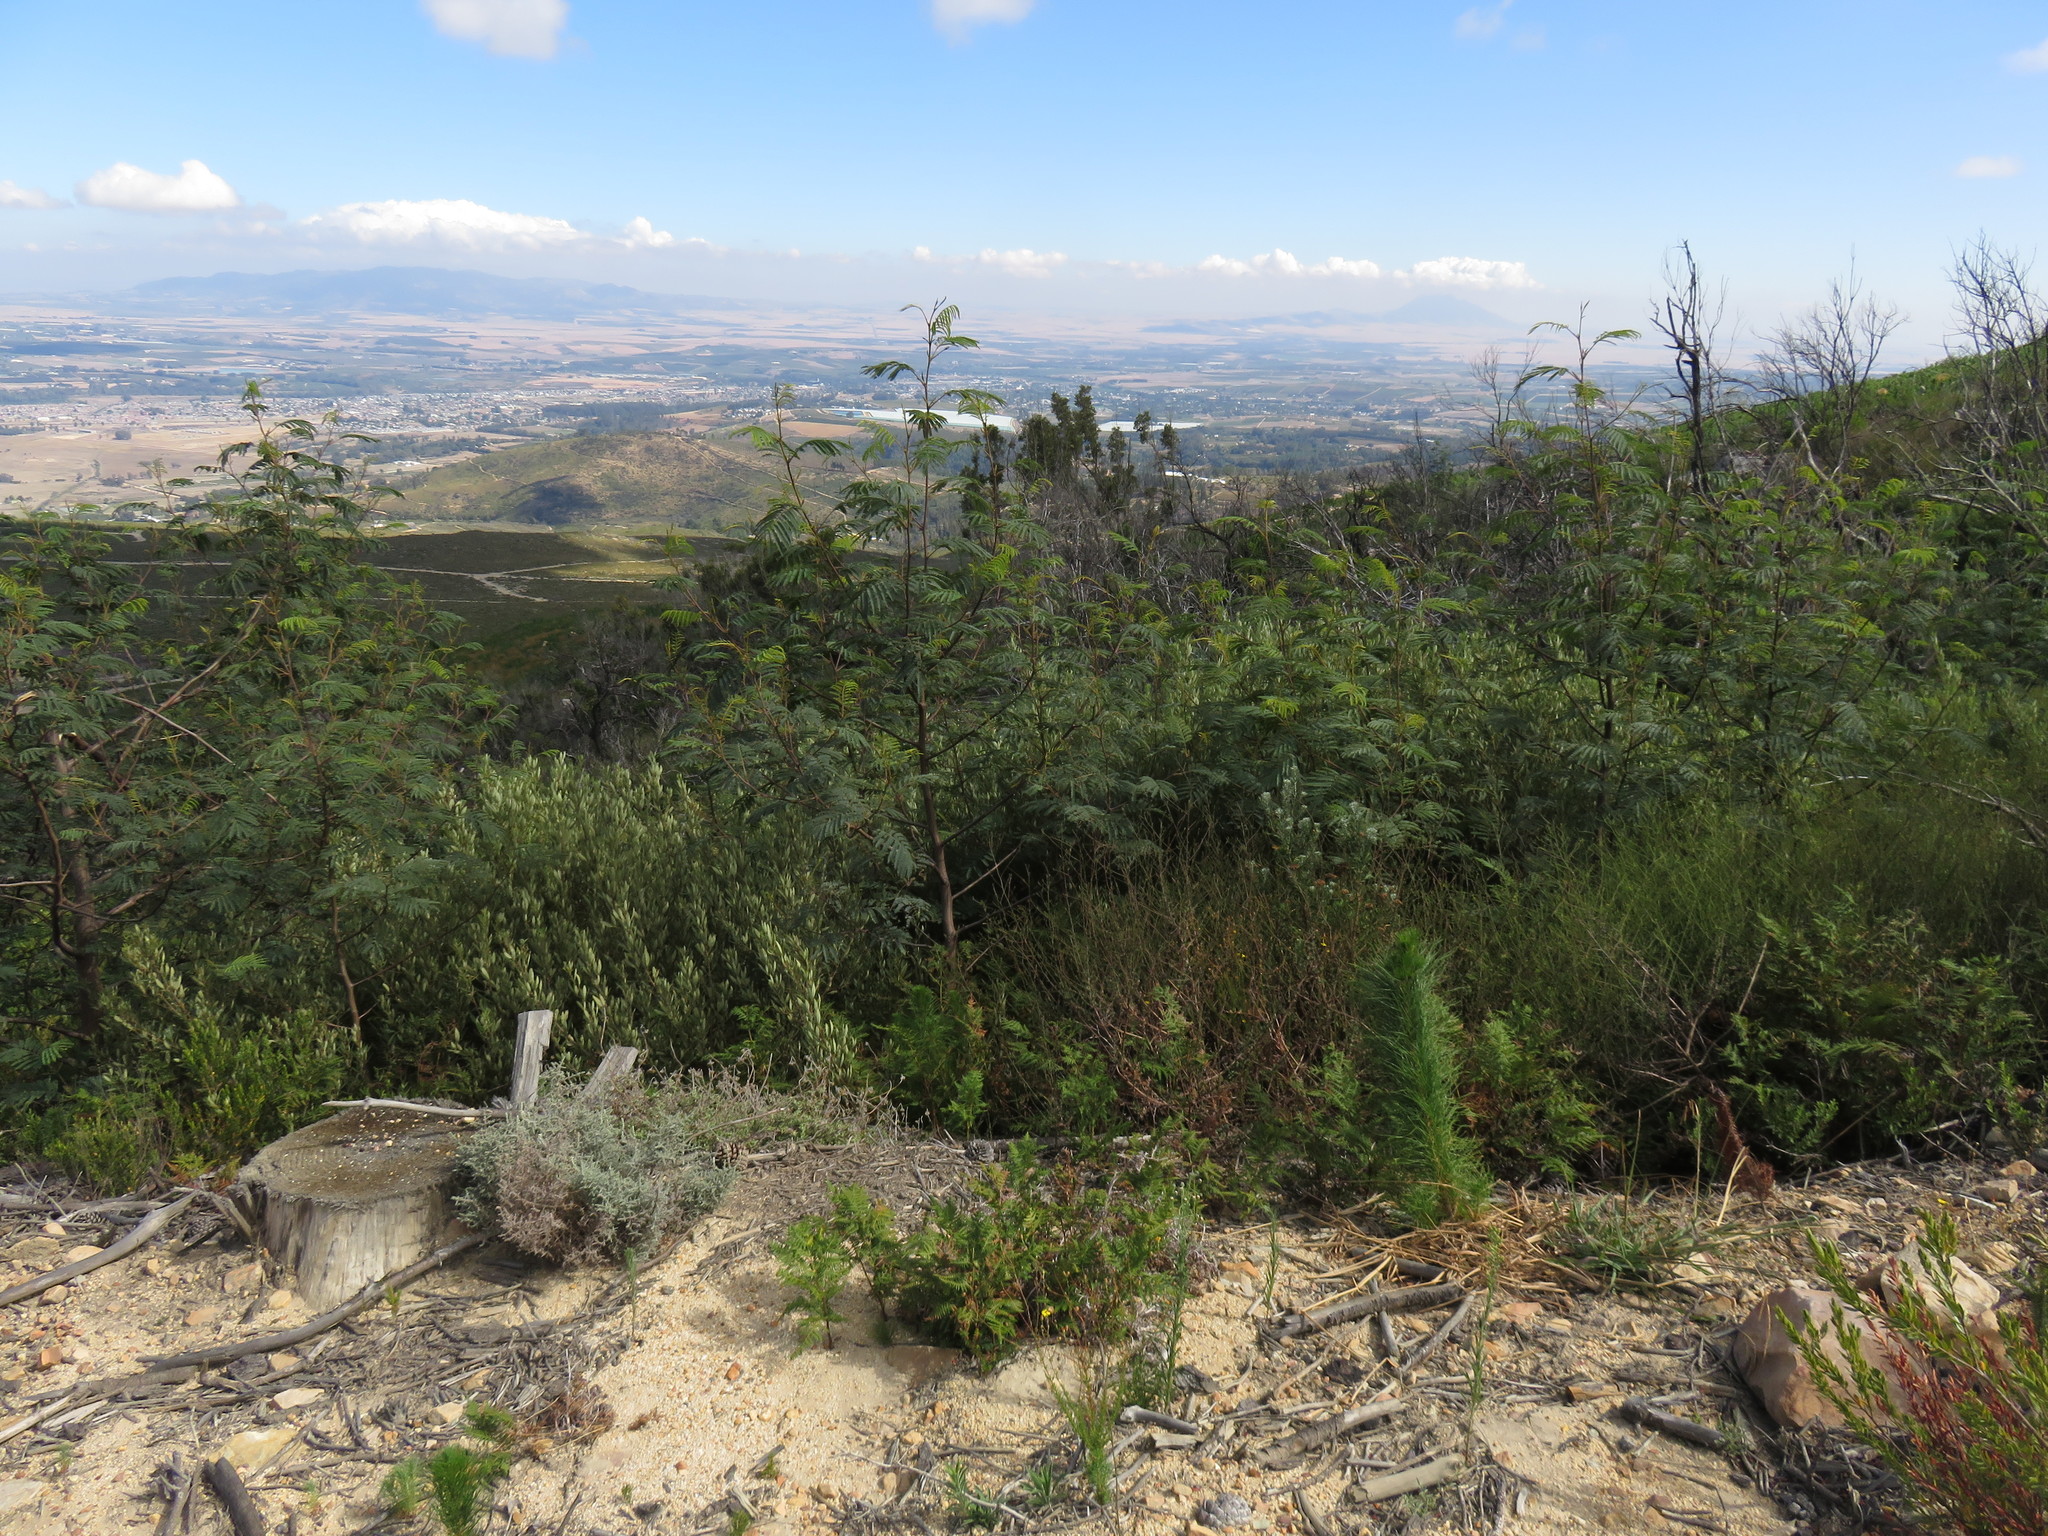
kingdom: Plantae
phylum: Tracheophyta
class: Magnoliopsida
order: Fabales
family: Fabaceae
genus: Paraserianthes
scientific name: Paraserianthes lophantha
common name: Plume albizia
